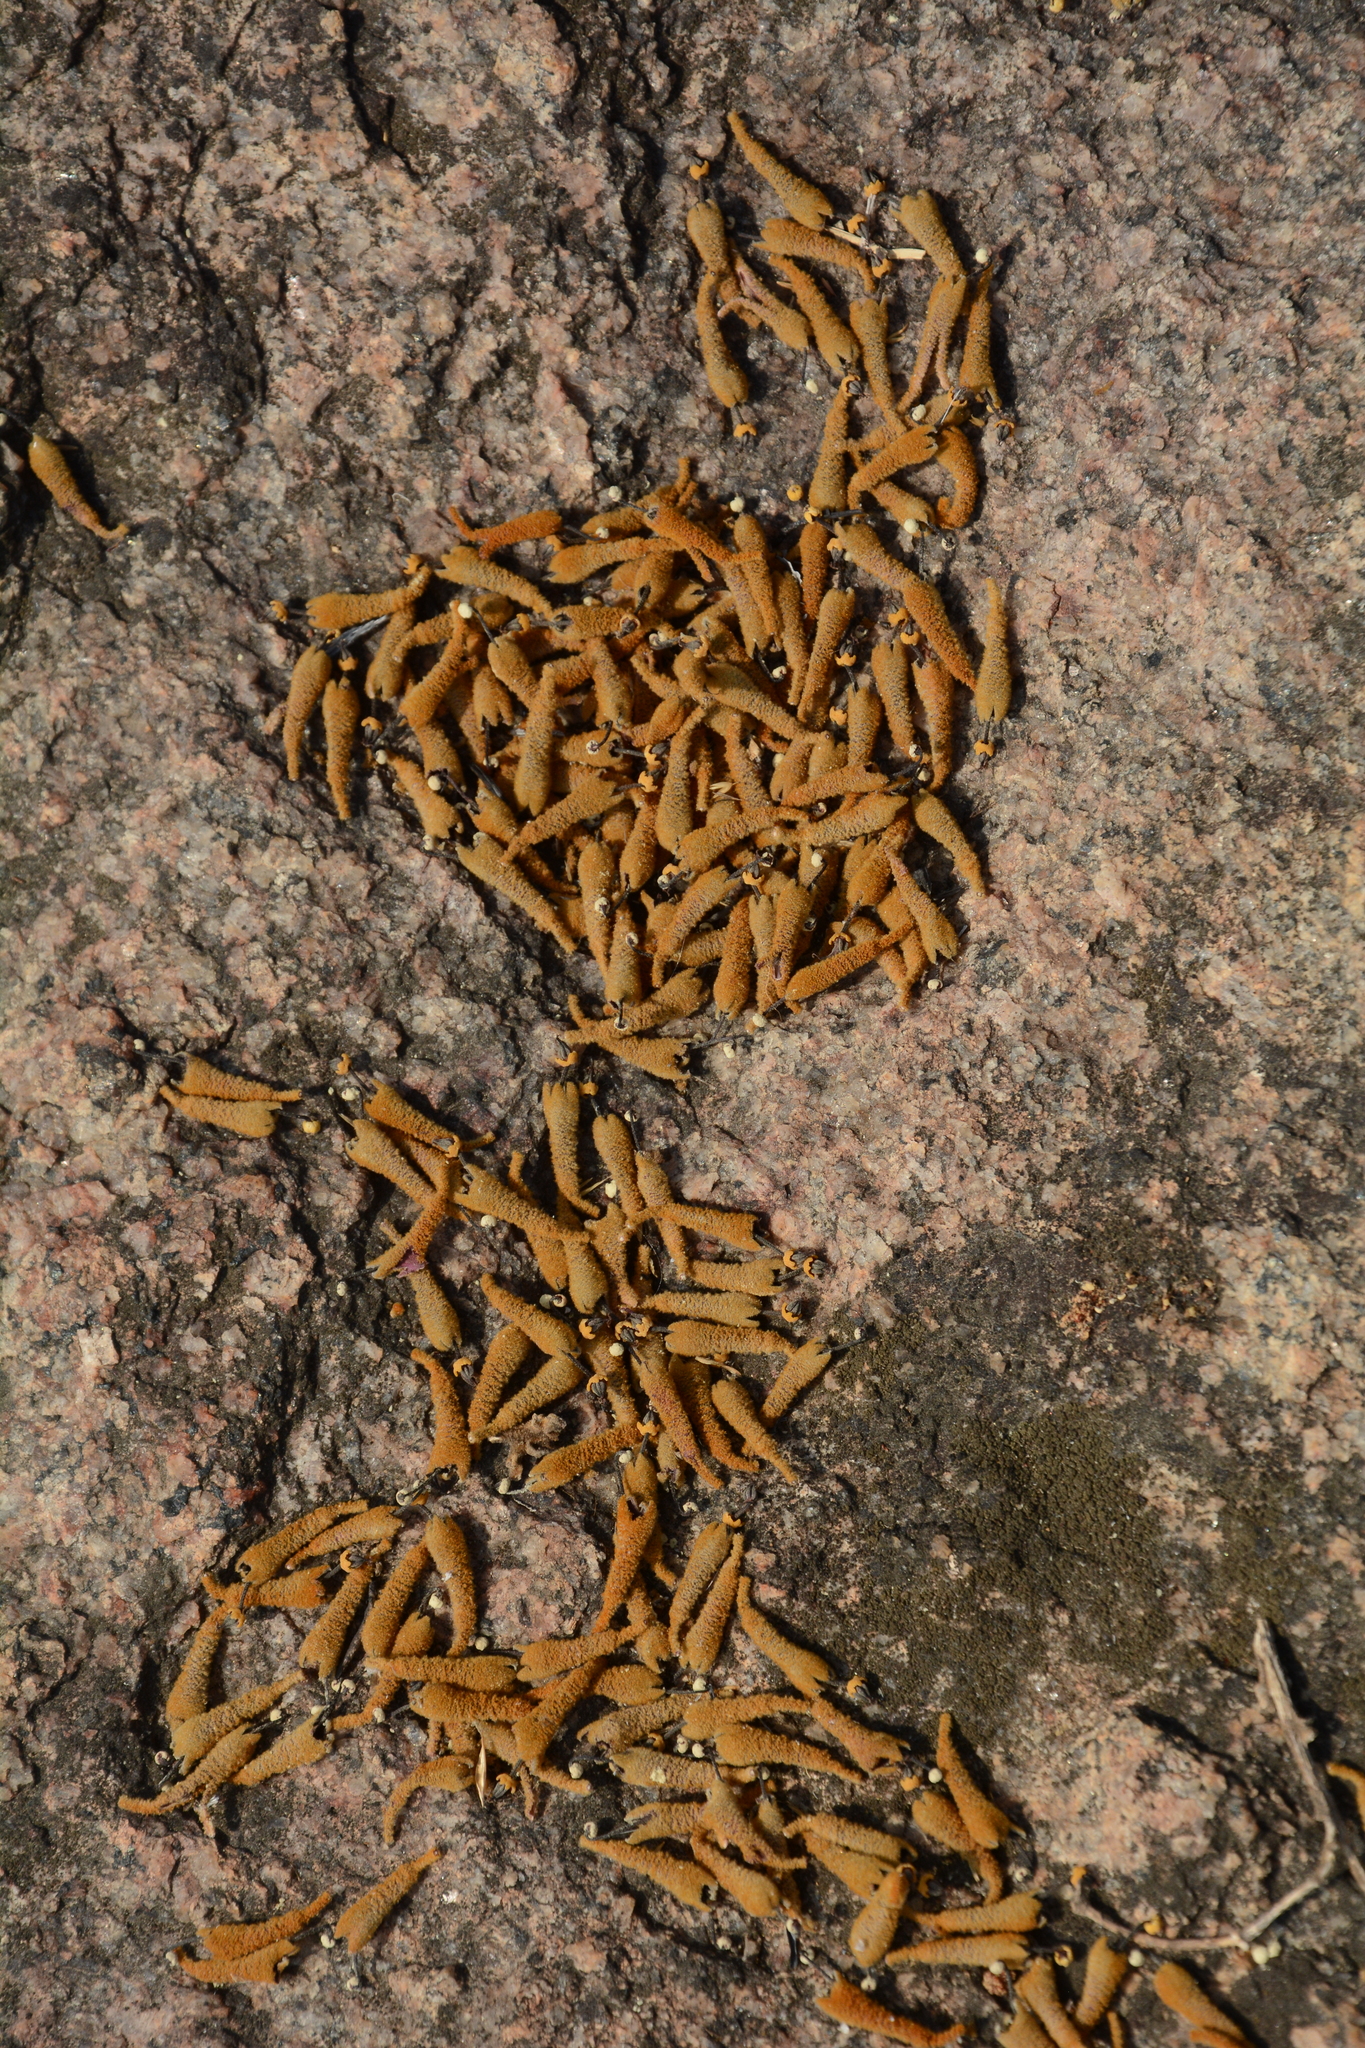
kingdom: Plantae
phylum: Tracheophyta
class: Magnoliopsida
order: Malvales
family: Malvaceae
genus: Firmiana
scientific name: Firmiana colorata
